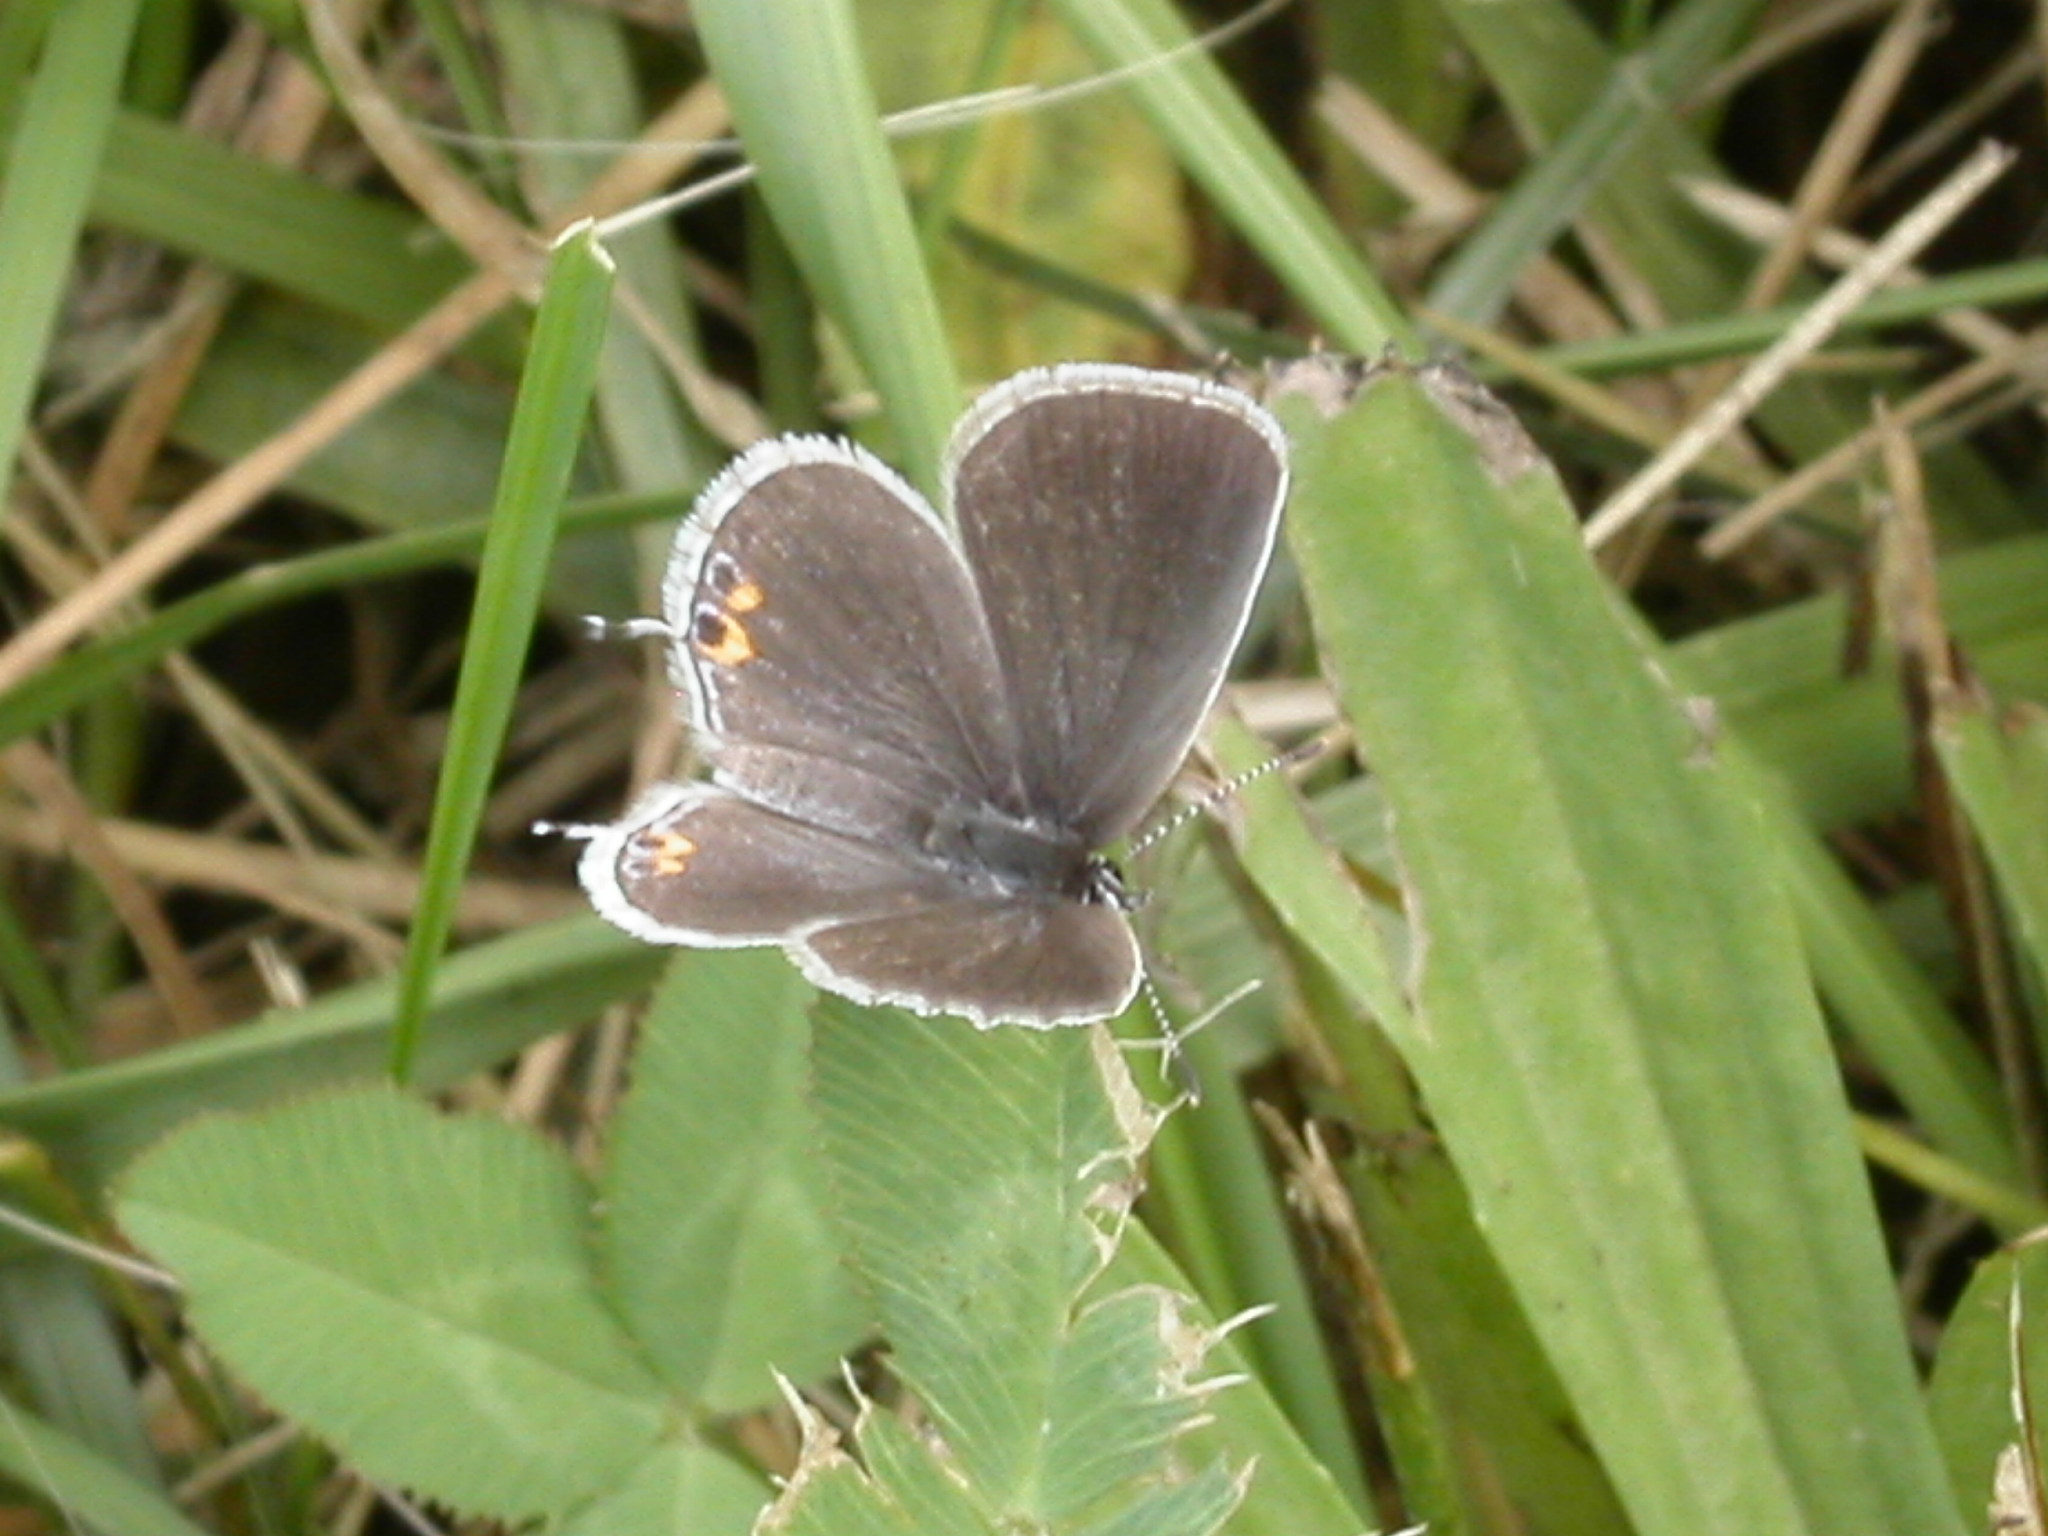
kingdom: Animalia
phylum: Arthropoda
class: Insecta
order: Lepidoptera
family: Lycaenidae
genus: Elkalyce
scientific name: Elkalyce comyntas
